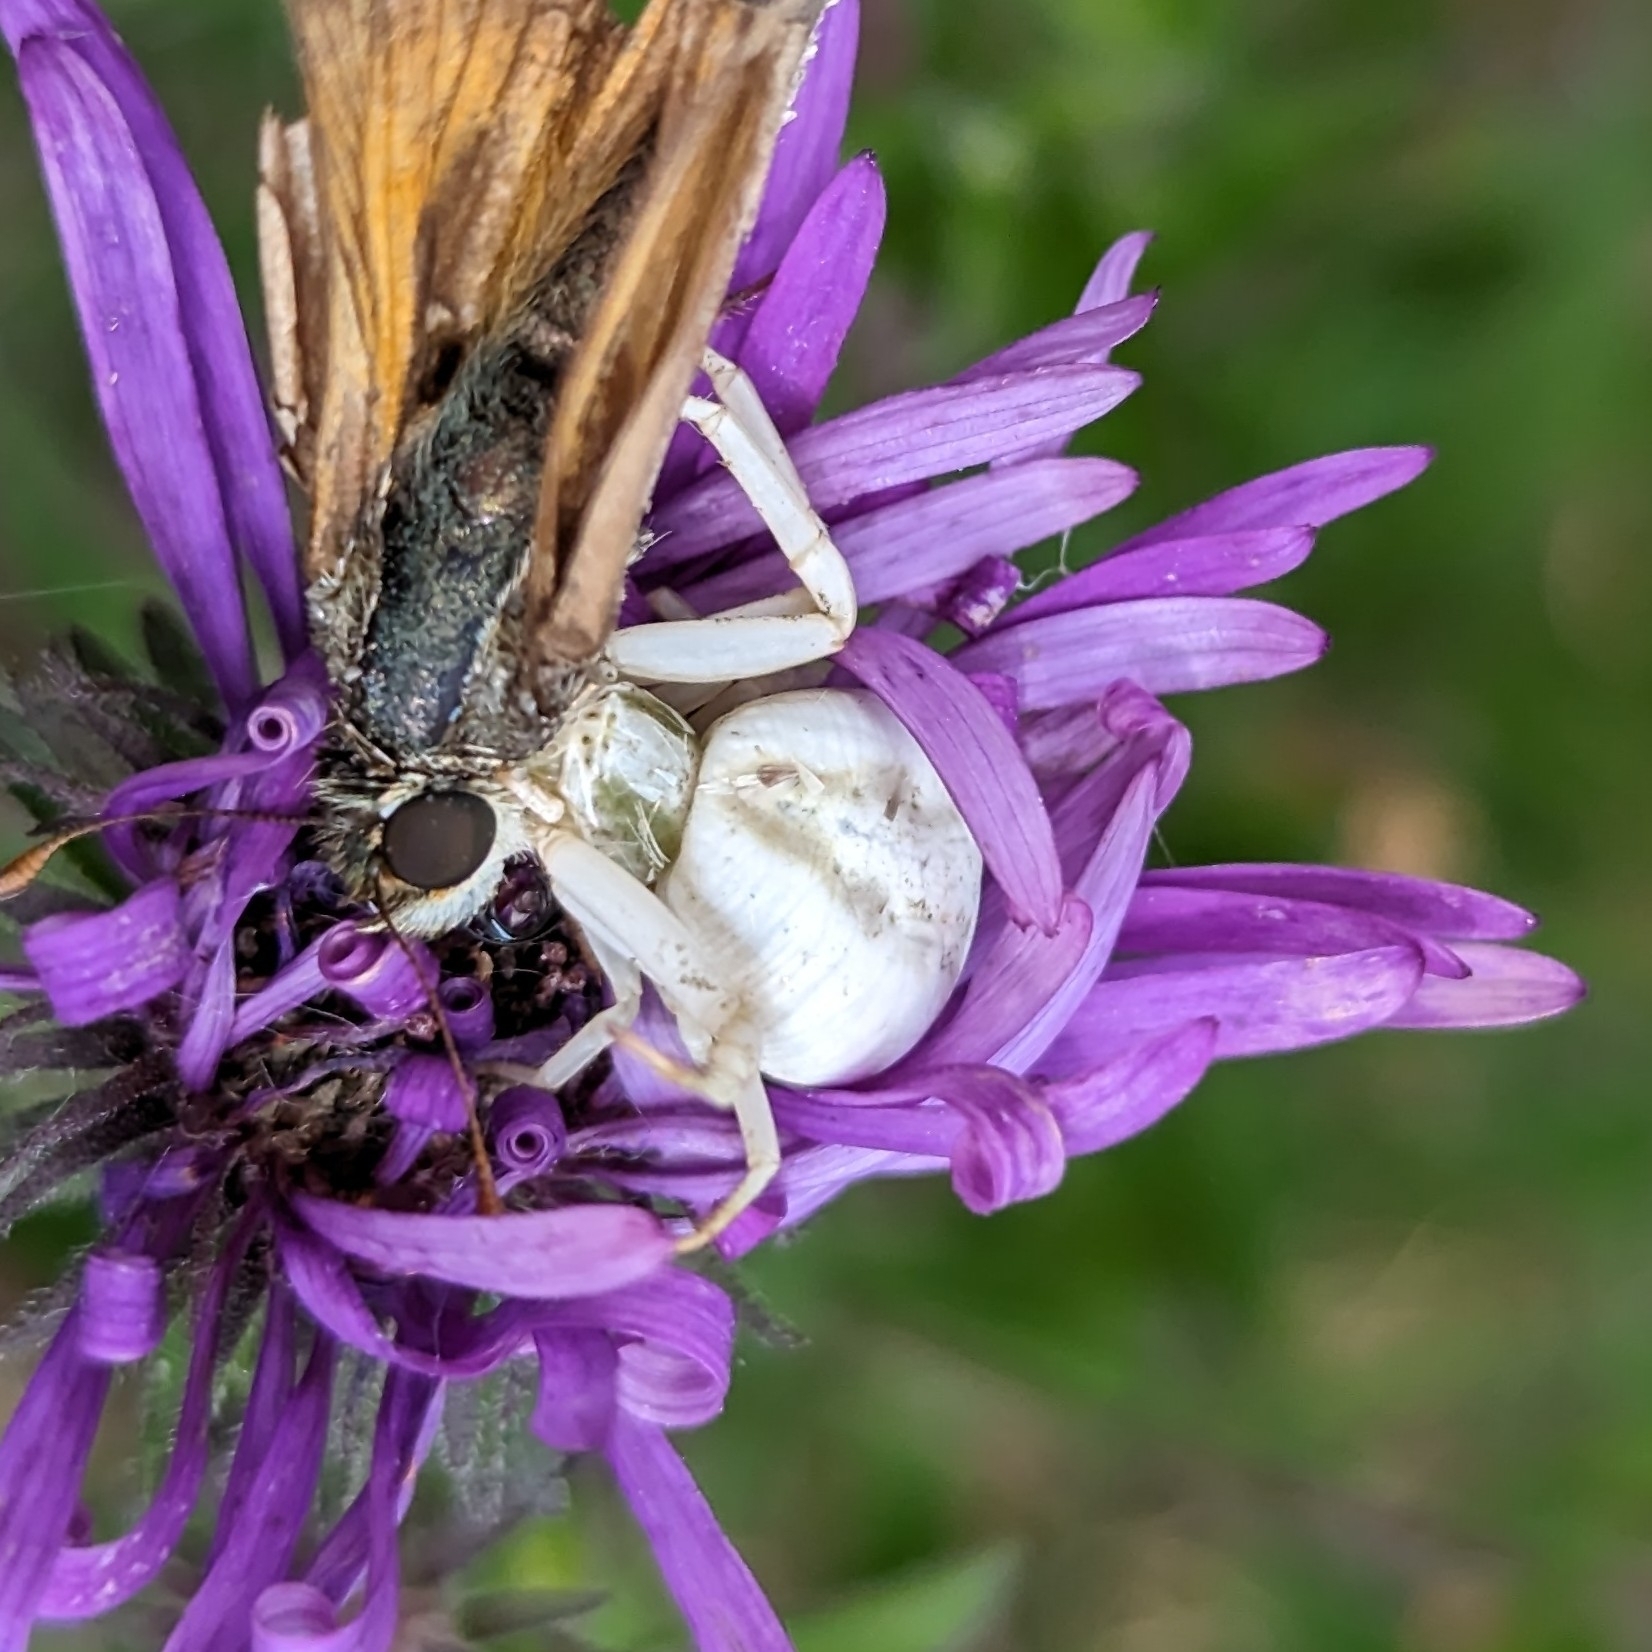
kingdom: Animalia
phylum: Arthropoda
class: Arachnida
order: Araneae
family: Thomisidae
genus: Misumenoides
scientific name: Misumenoides formosipes
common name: White-banded crab spider
